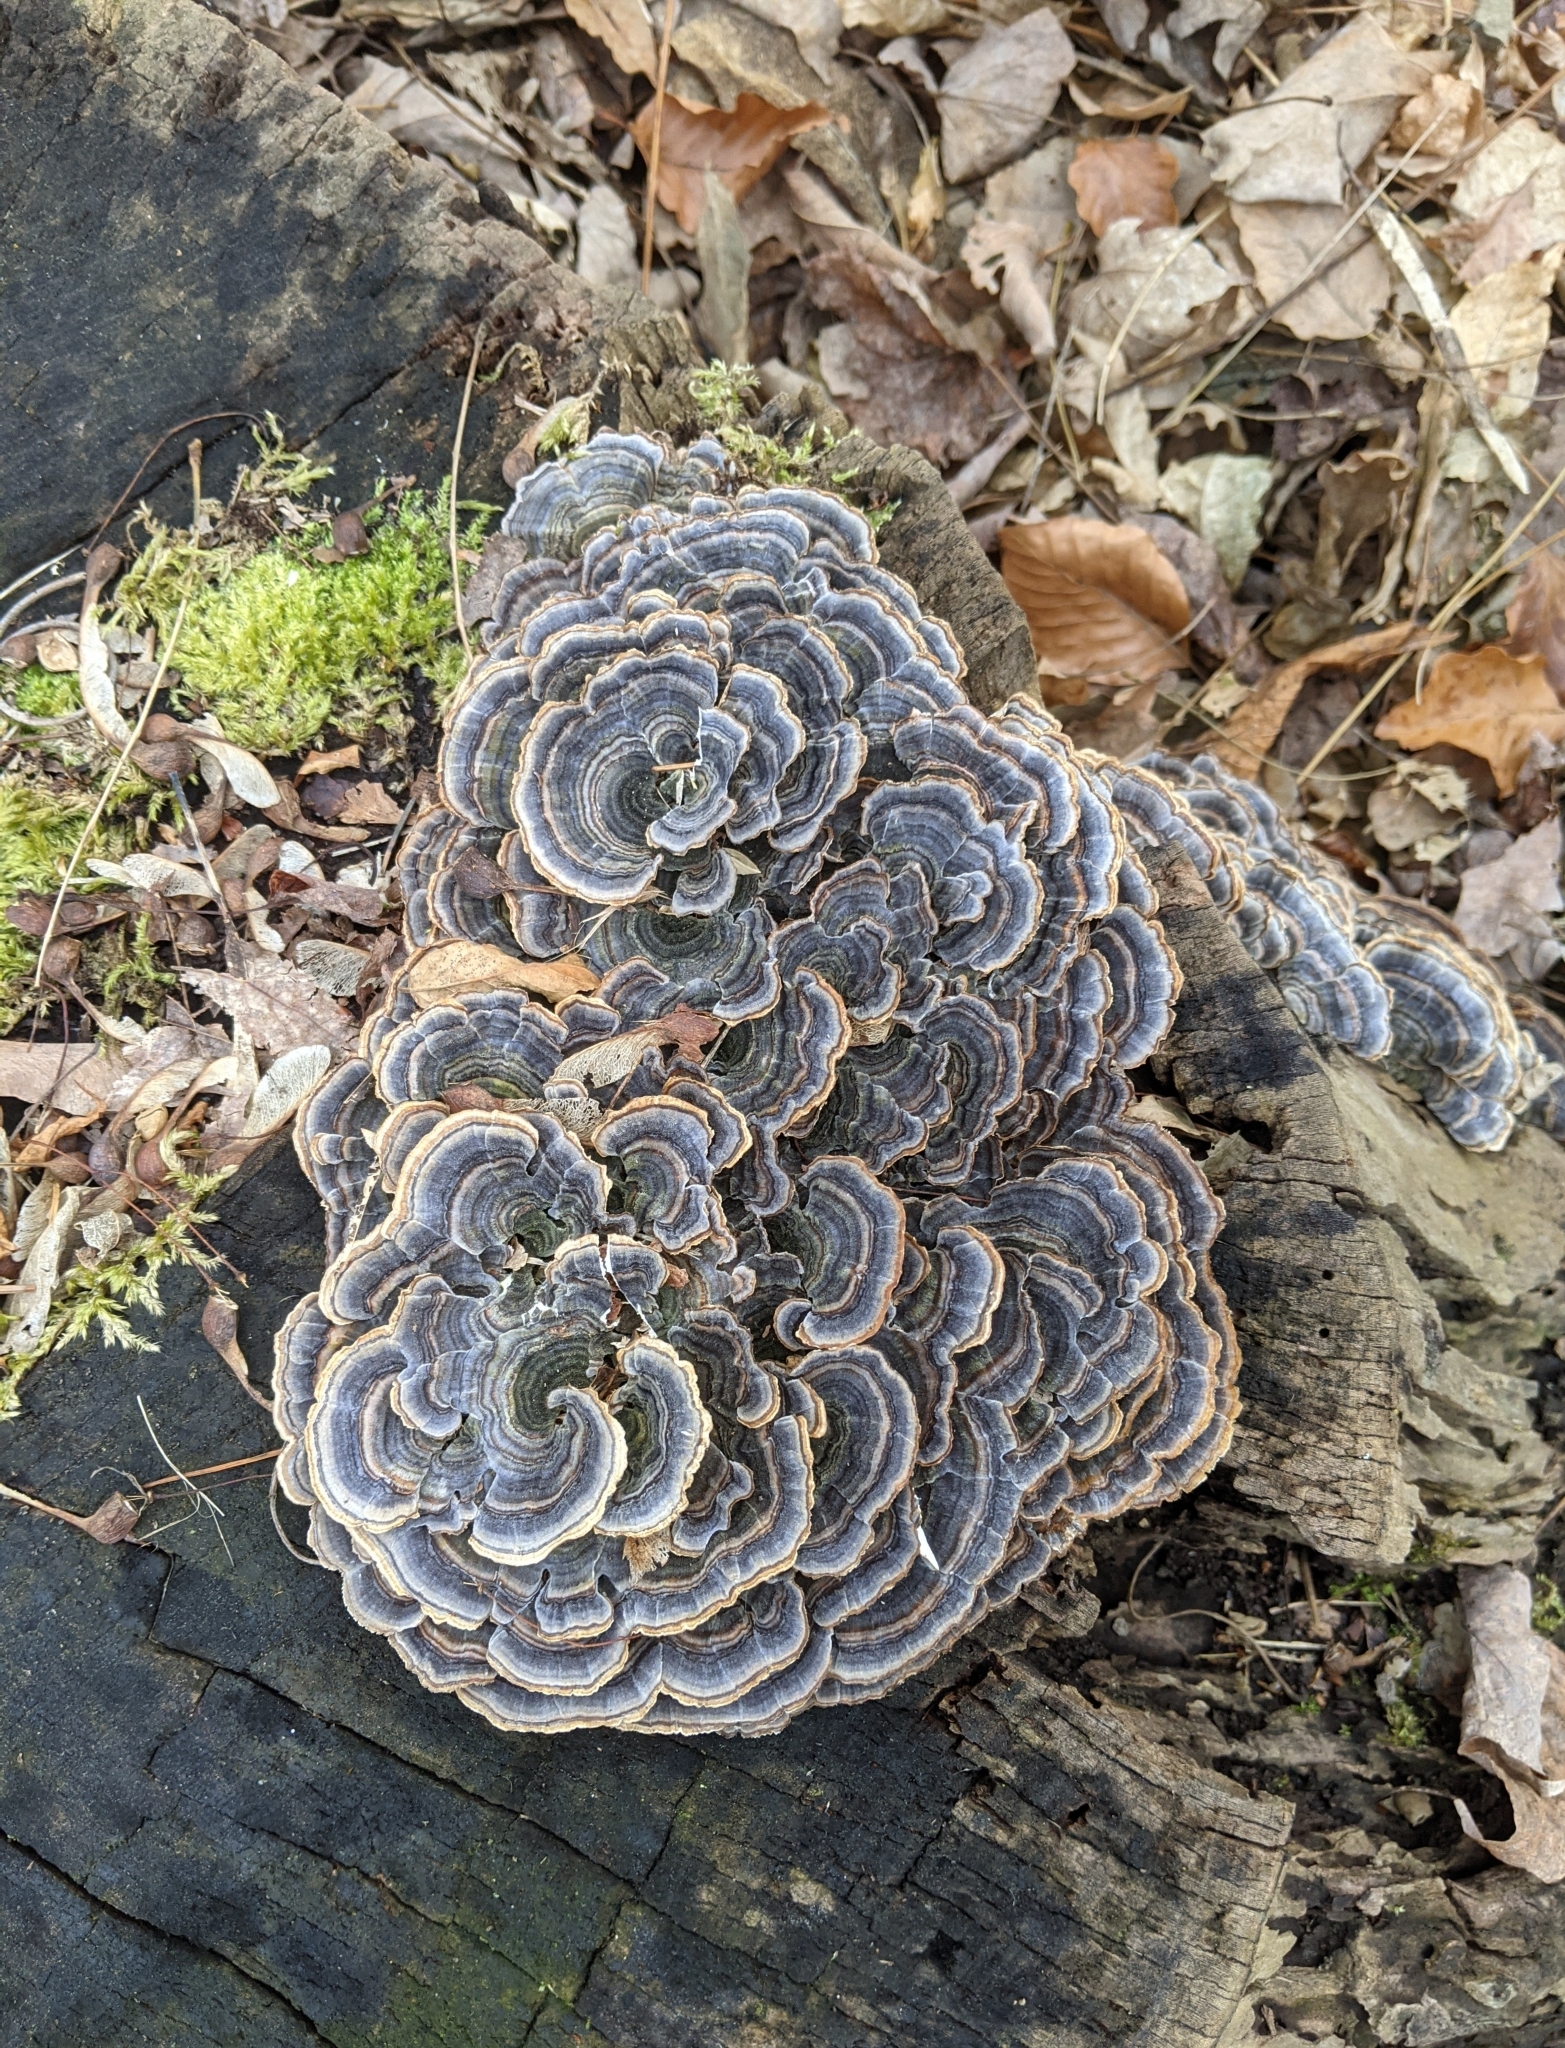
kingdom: Fungi
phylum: Basidiomycota
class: Agaricomycetes
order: Polyporales
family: Polyporaceae
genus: Trametes
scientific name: Trametes versicolor
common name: Turkeytail
